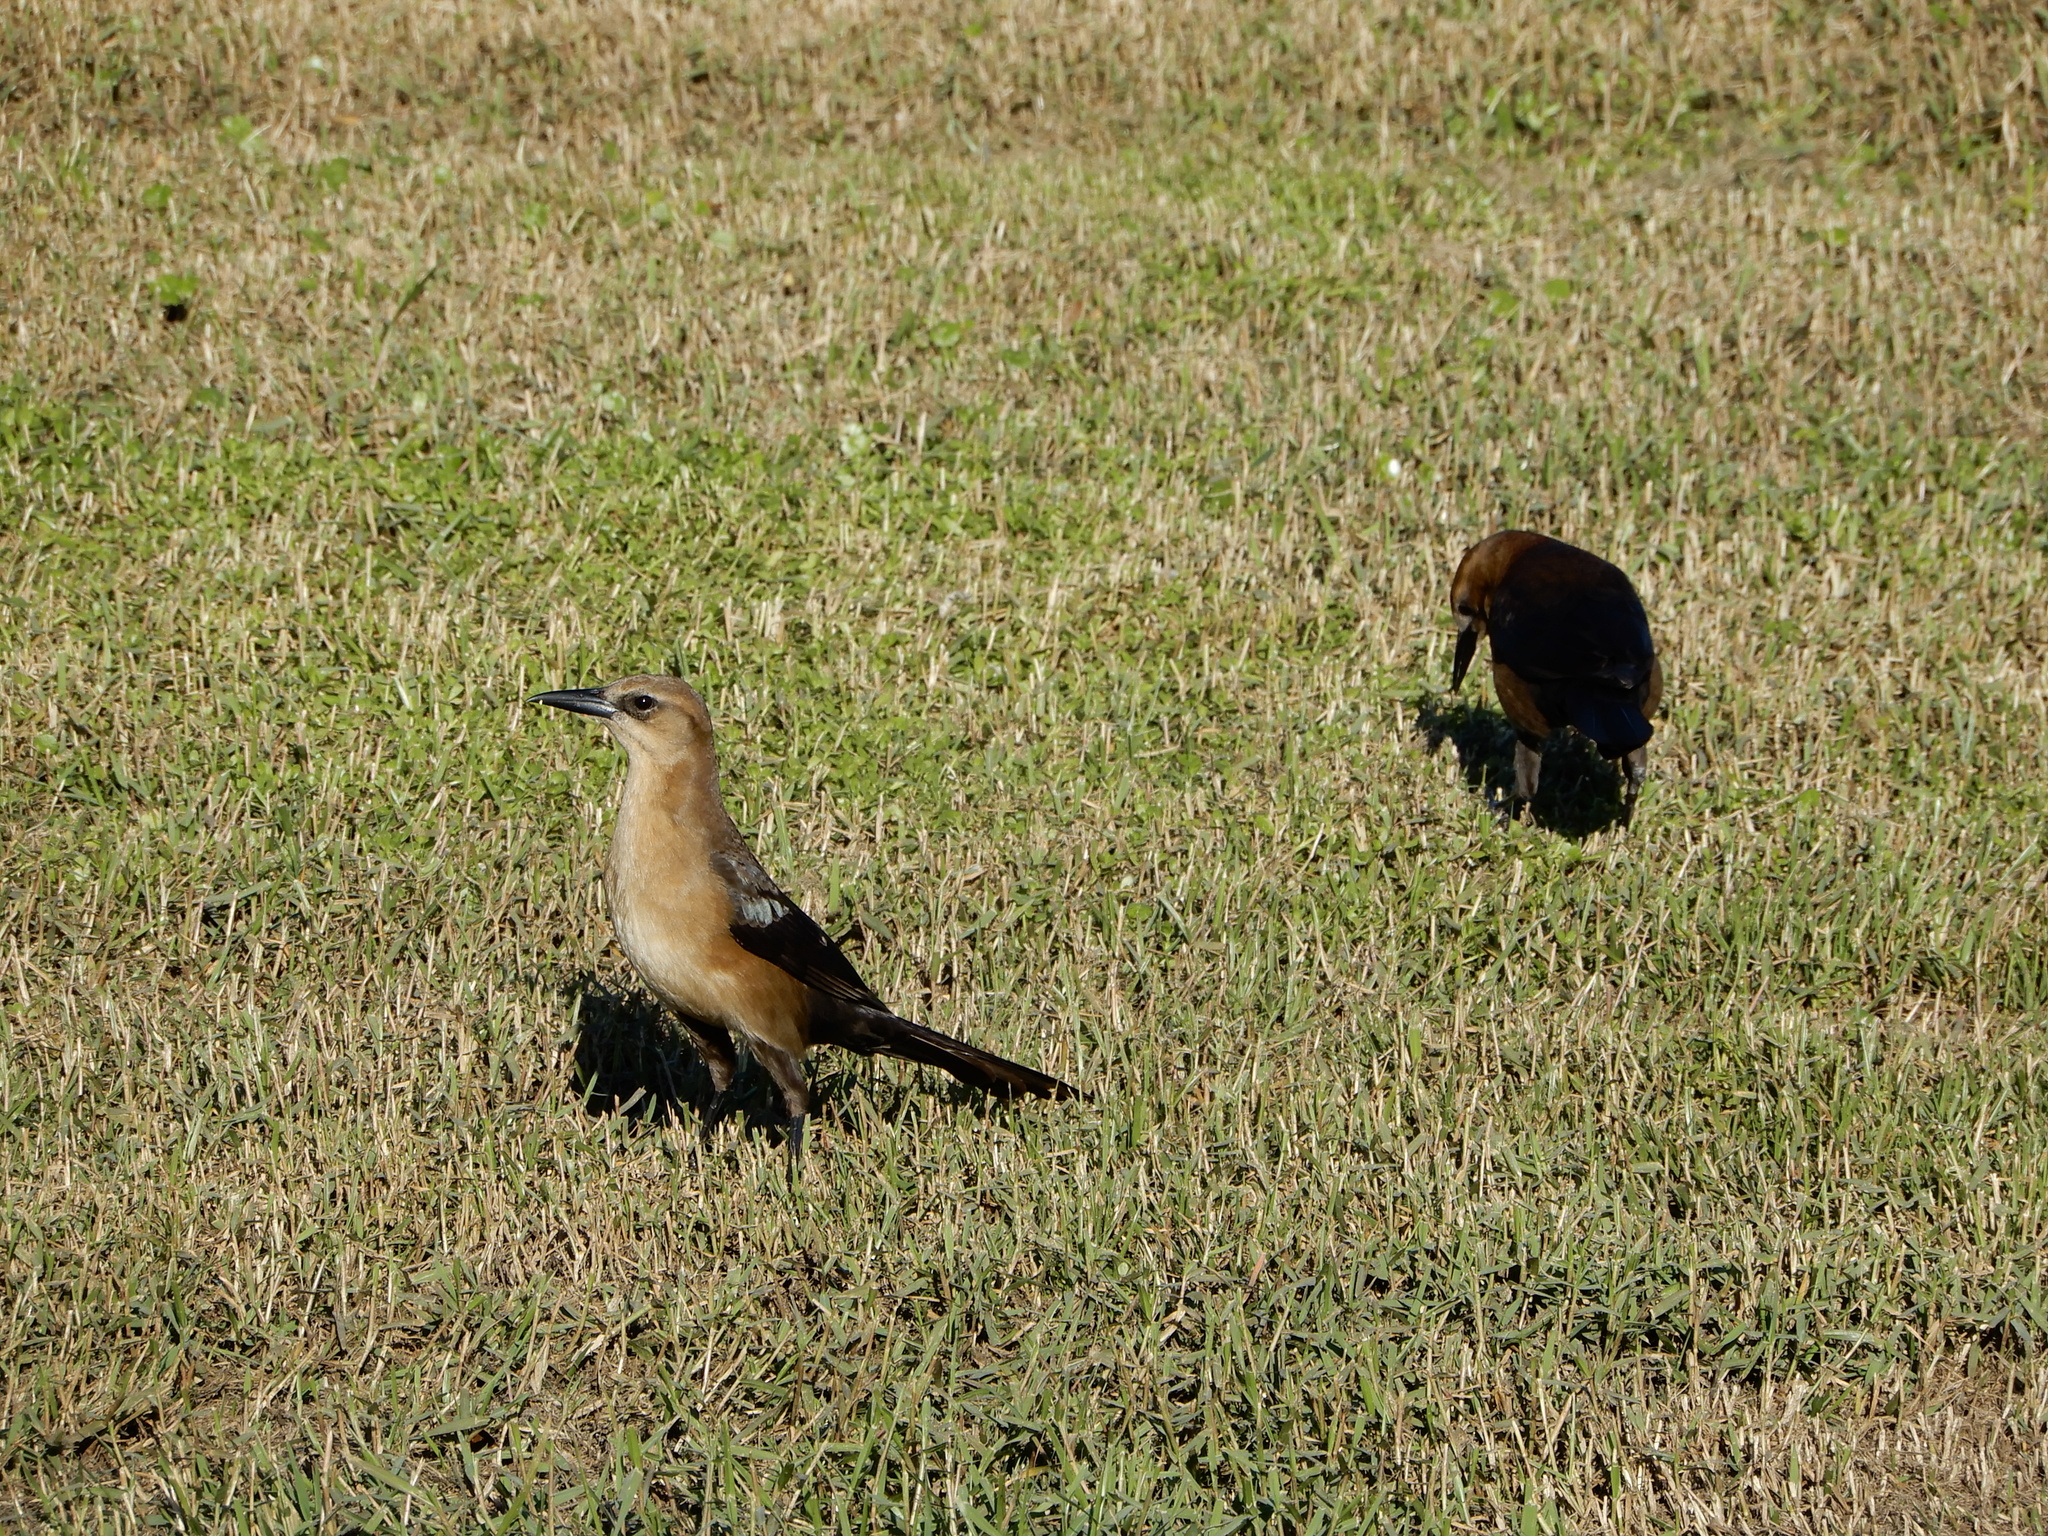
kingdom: Animalia
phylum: Chordata
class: Aves
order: Passeriformes
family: Icteridae
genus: Quiscalus
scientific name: Quiscalus major
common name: Boat-tailed grackle
